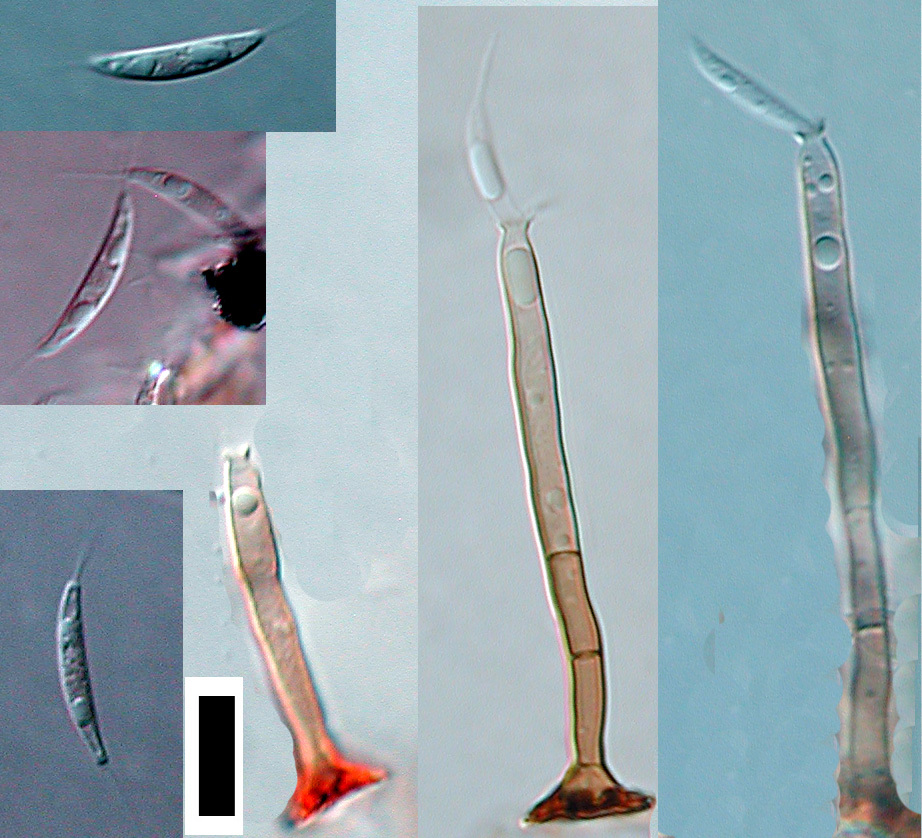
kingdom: Fungi
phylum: Ascomycota
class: Sordariomycetes
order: Chaetosphaeriales
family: Chaetosphaeriaceae
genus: Dictyochaeta
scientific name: Dictyochaeta fertilis
